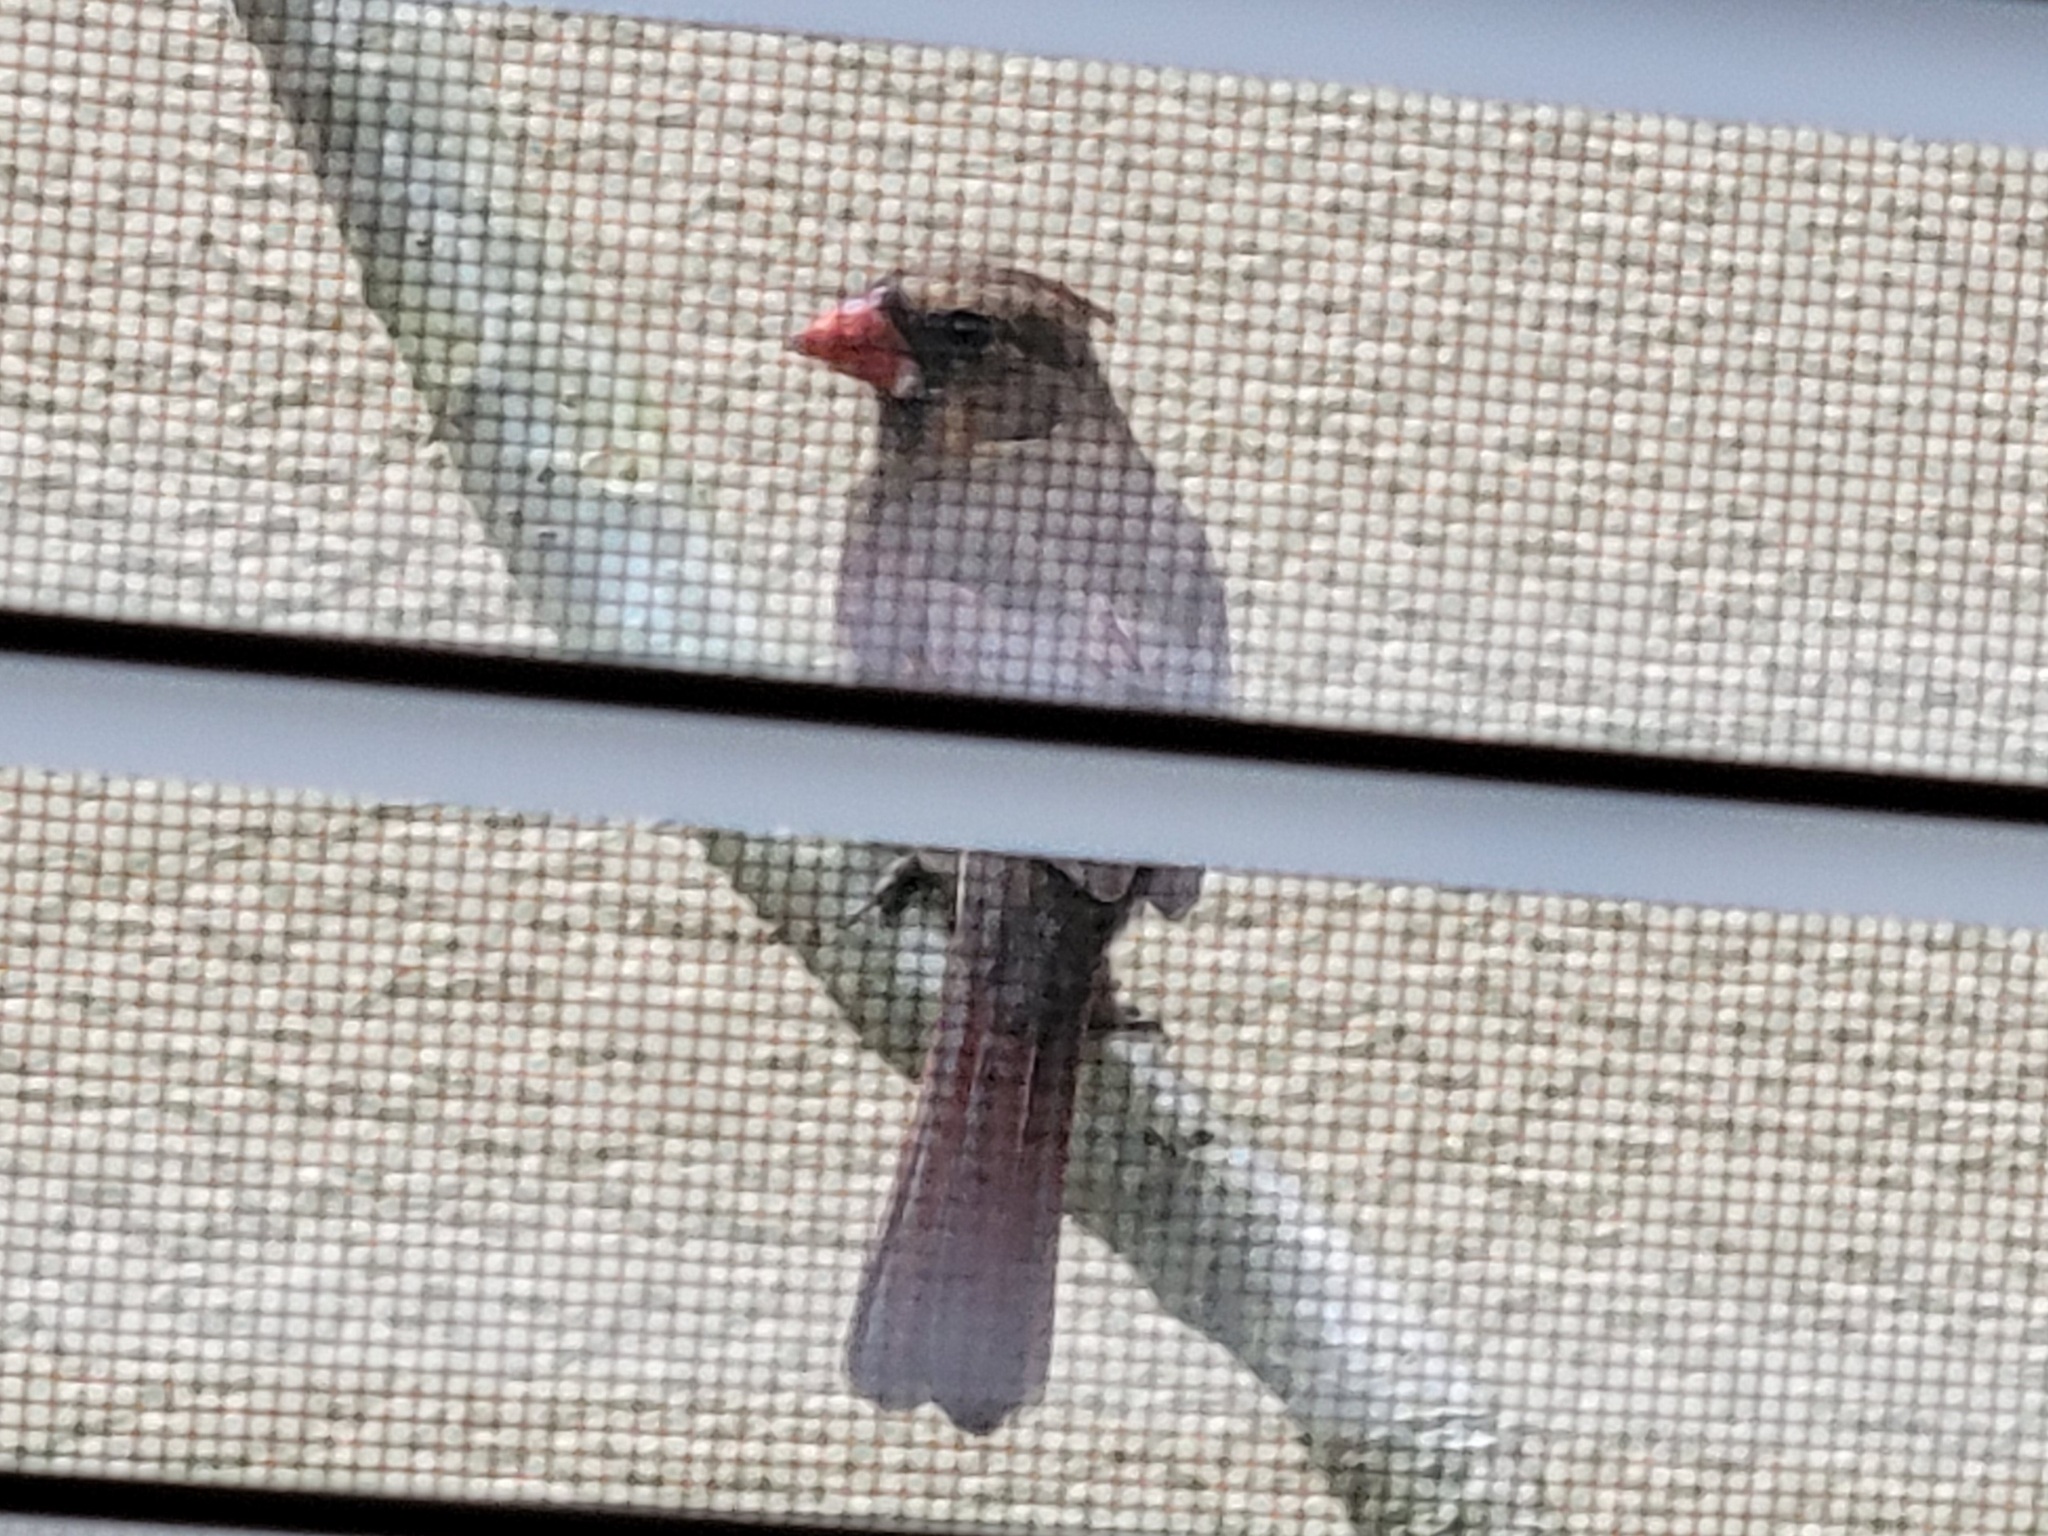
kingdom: Animalia
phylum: Chordata
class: Aves
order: Passeriformes
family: Cardinalidae
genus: Cardinalis
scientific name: Cardinalis cardinalis
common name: Northern cardinal
